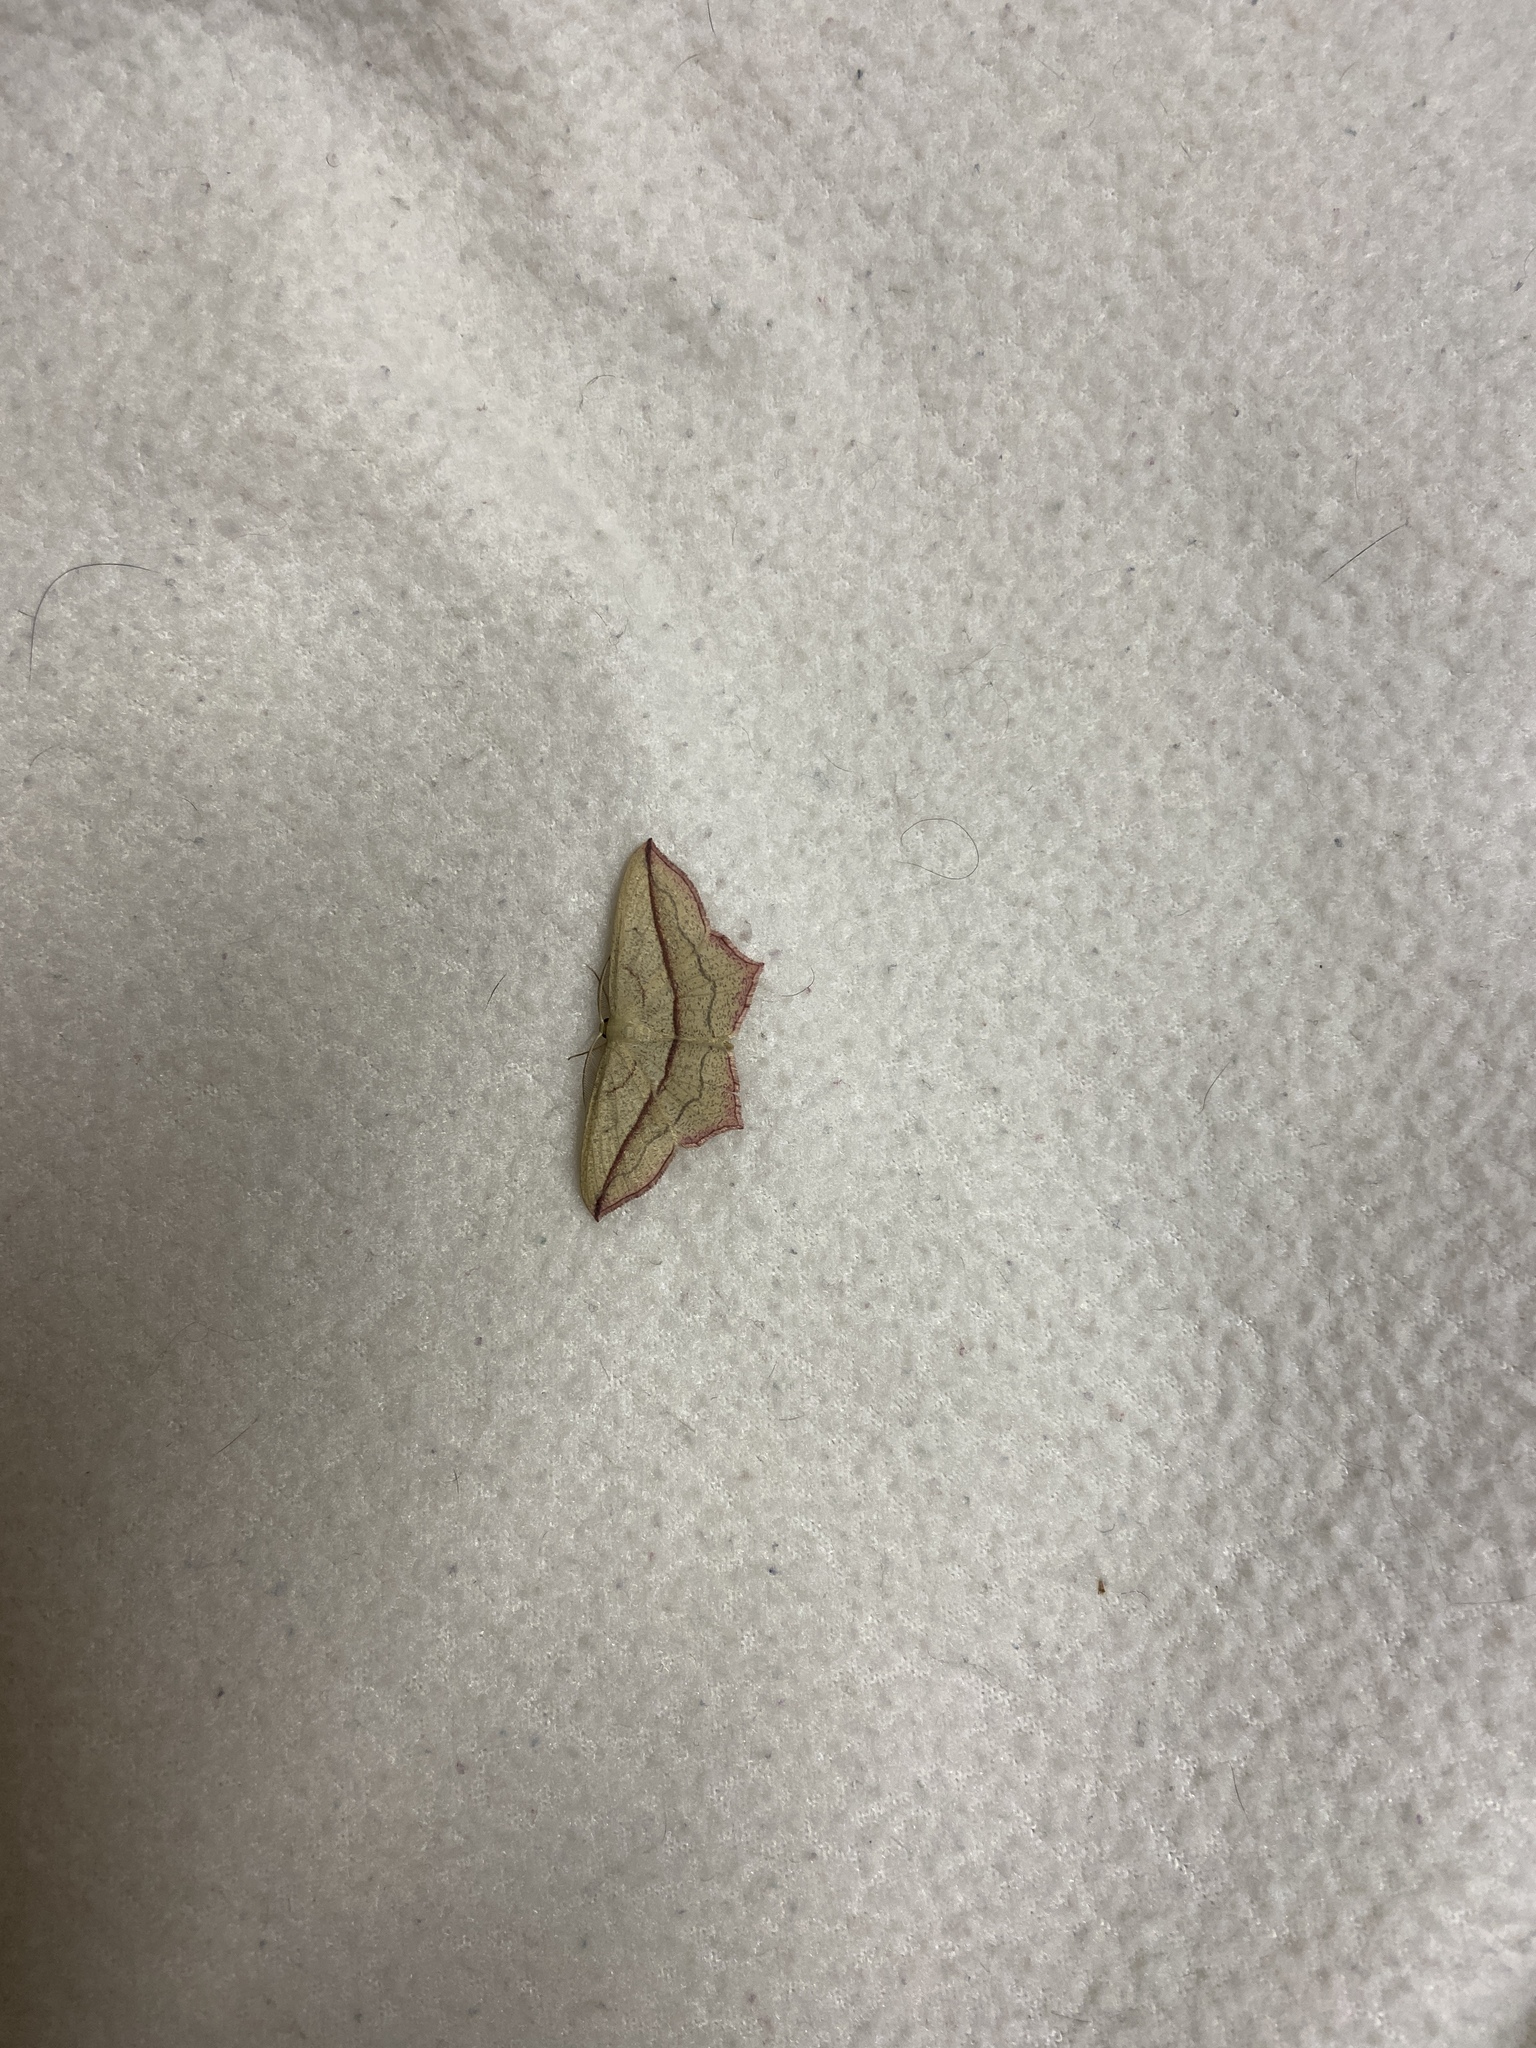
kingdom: Animalia
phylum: Arthropoda
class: Insecta
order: Lepidoptera
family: Geometridae
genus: Timandra
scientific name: Timandra comae
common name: Blood-vein
